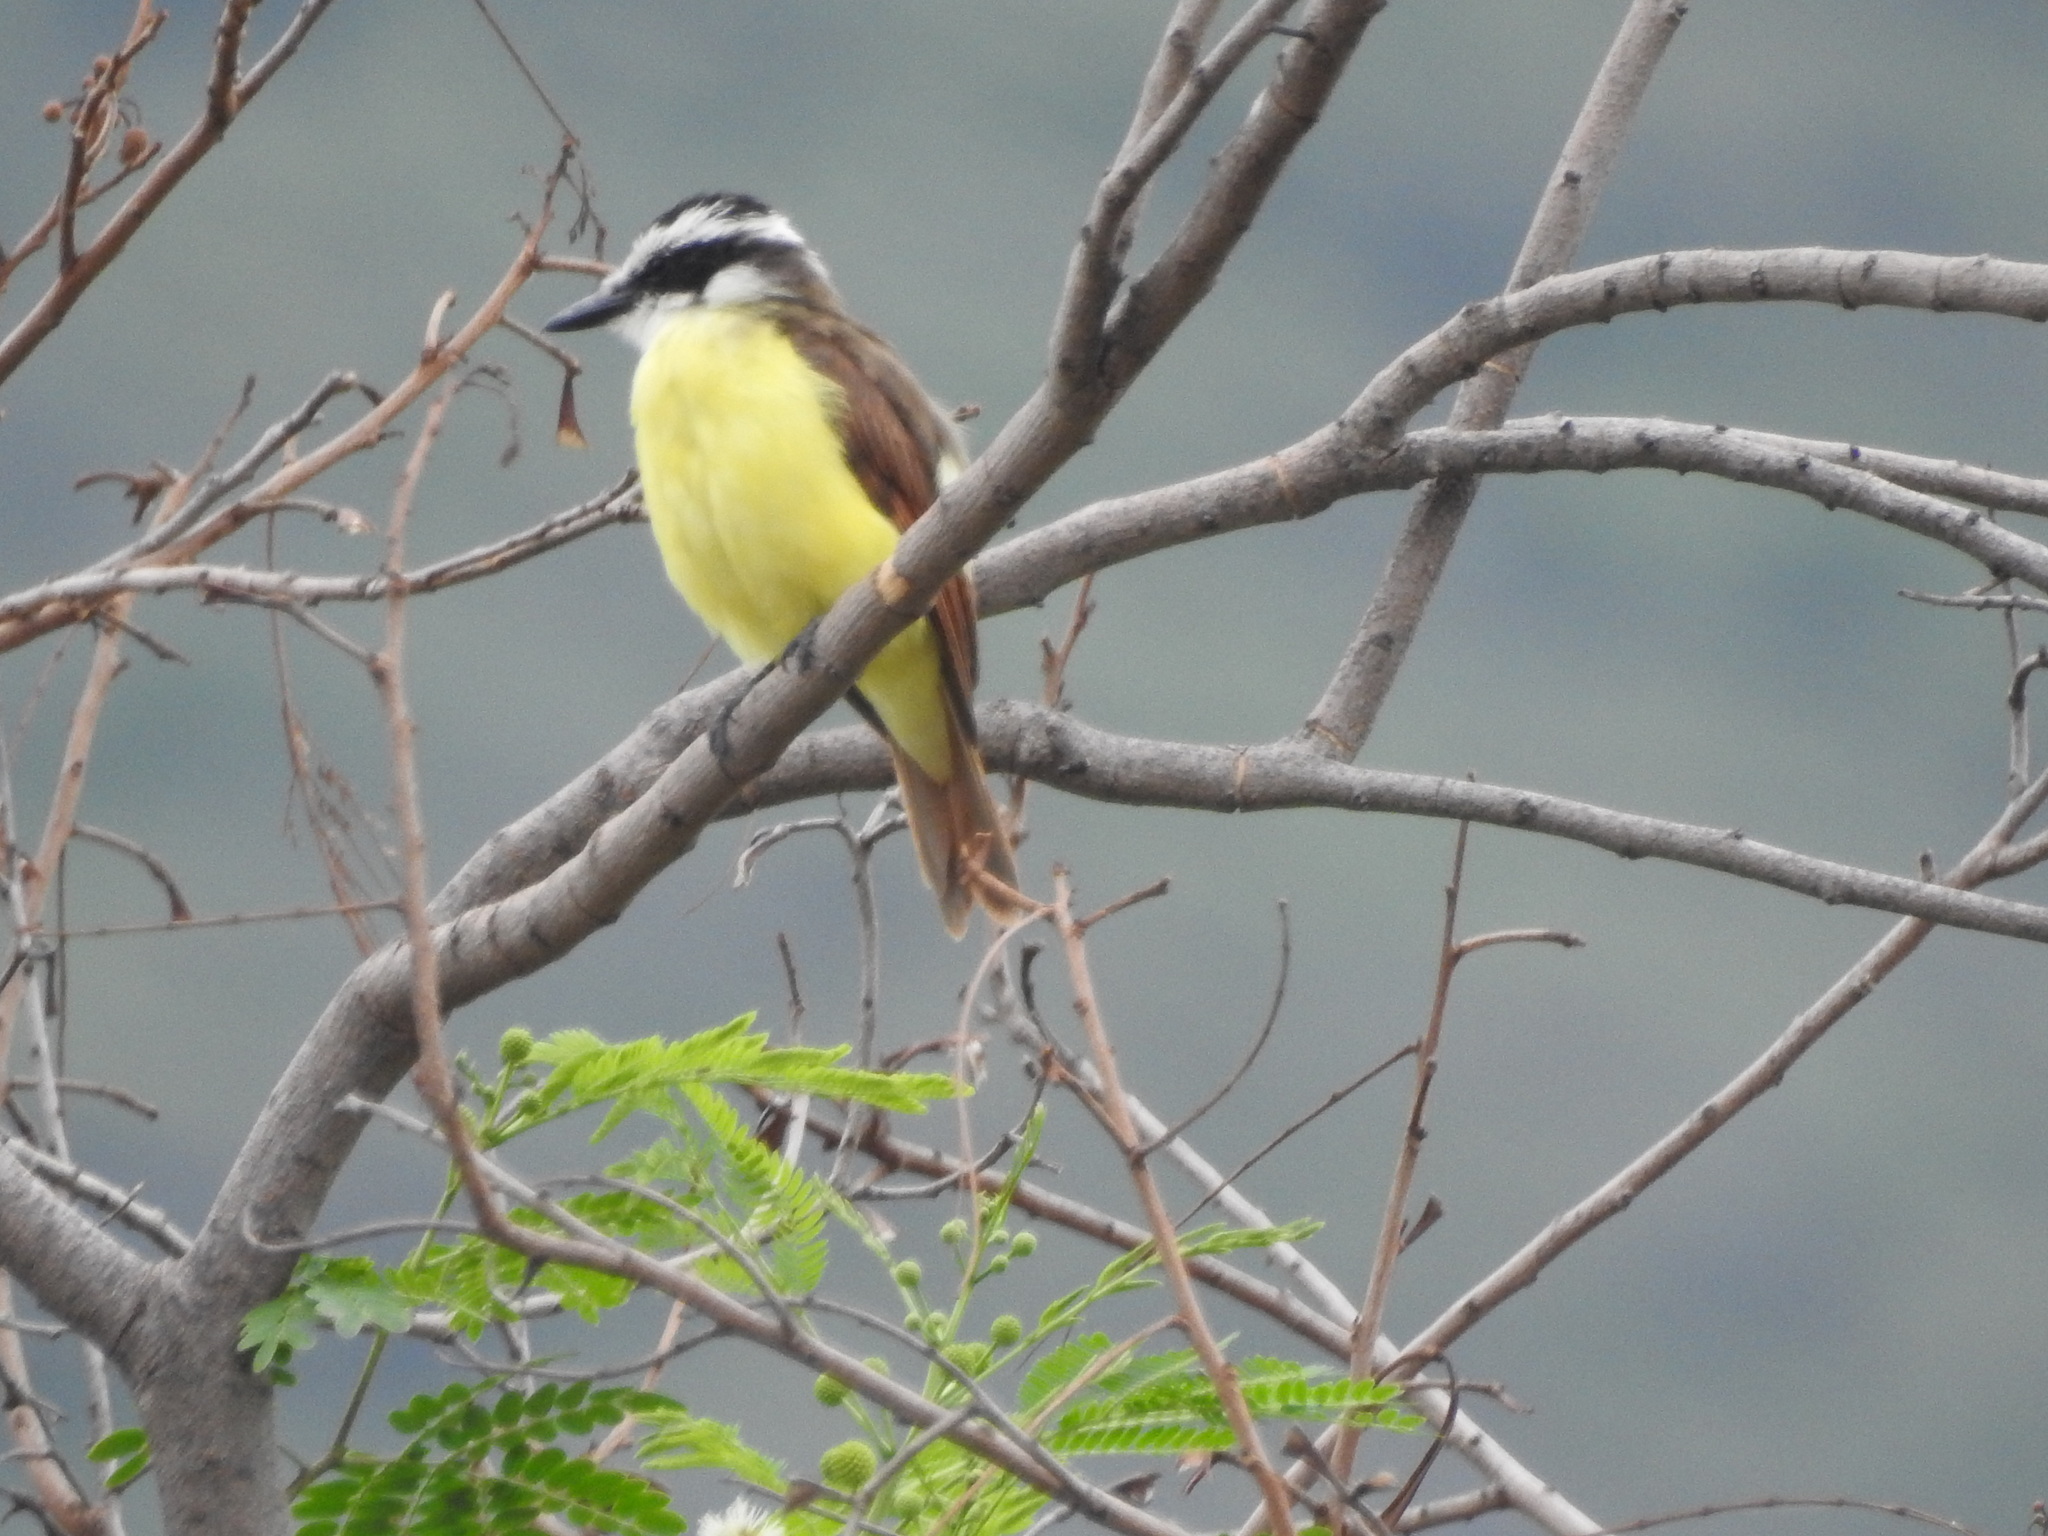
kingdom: Animalia
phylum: Chordata
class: Aves
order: Passeriformes
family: Tyrannidae
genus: Pitangus
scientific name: Pitangus sulphuratus
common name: Great kiskadee
